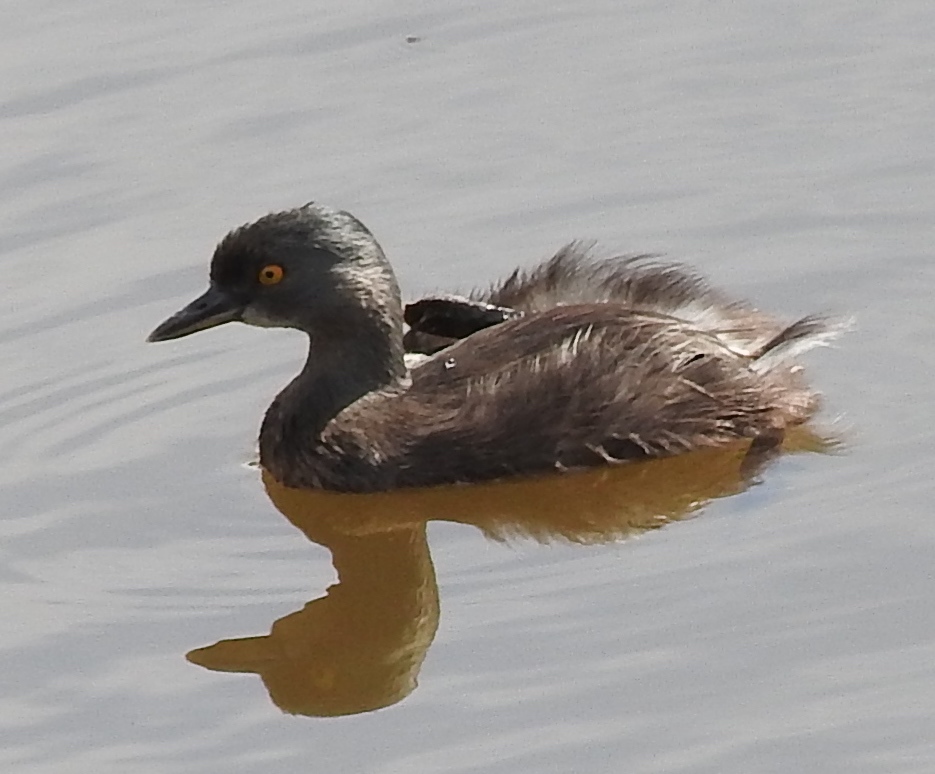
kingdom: Animalia
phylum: Chordata
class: Aves
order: Podicipediformes
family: Podicipedidae
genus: Tachybaptus
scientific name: Tachybaptus dominicus
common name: Least grebe
